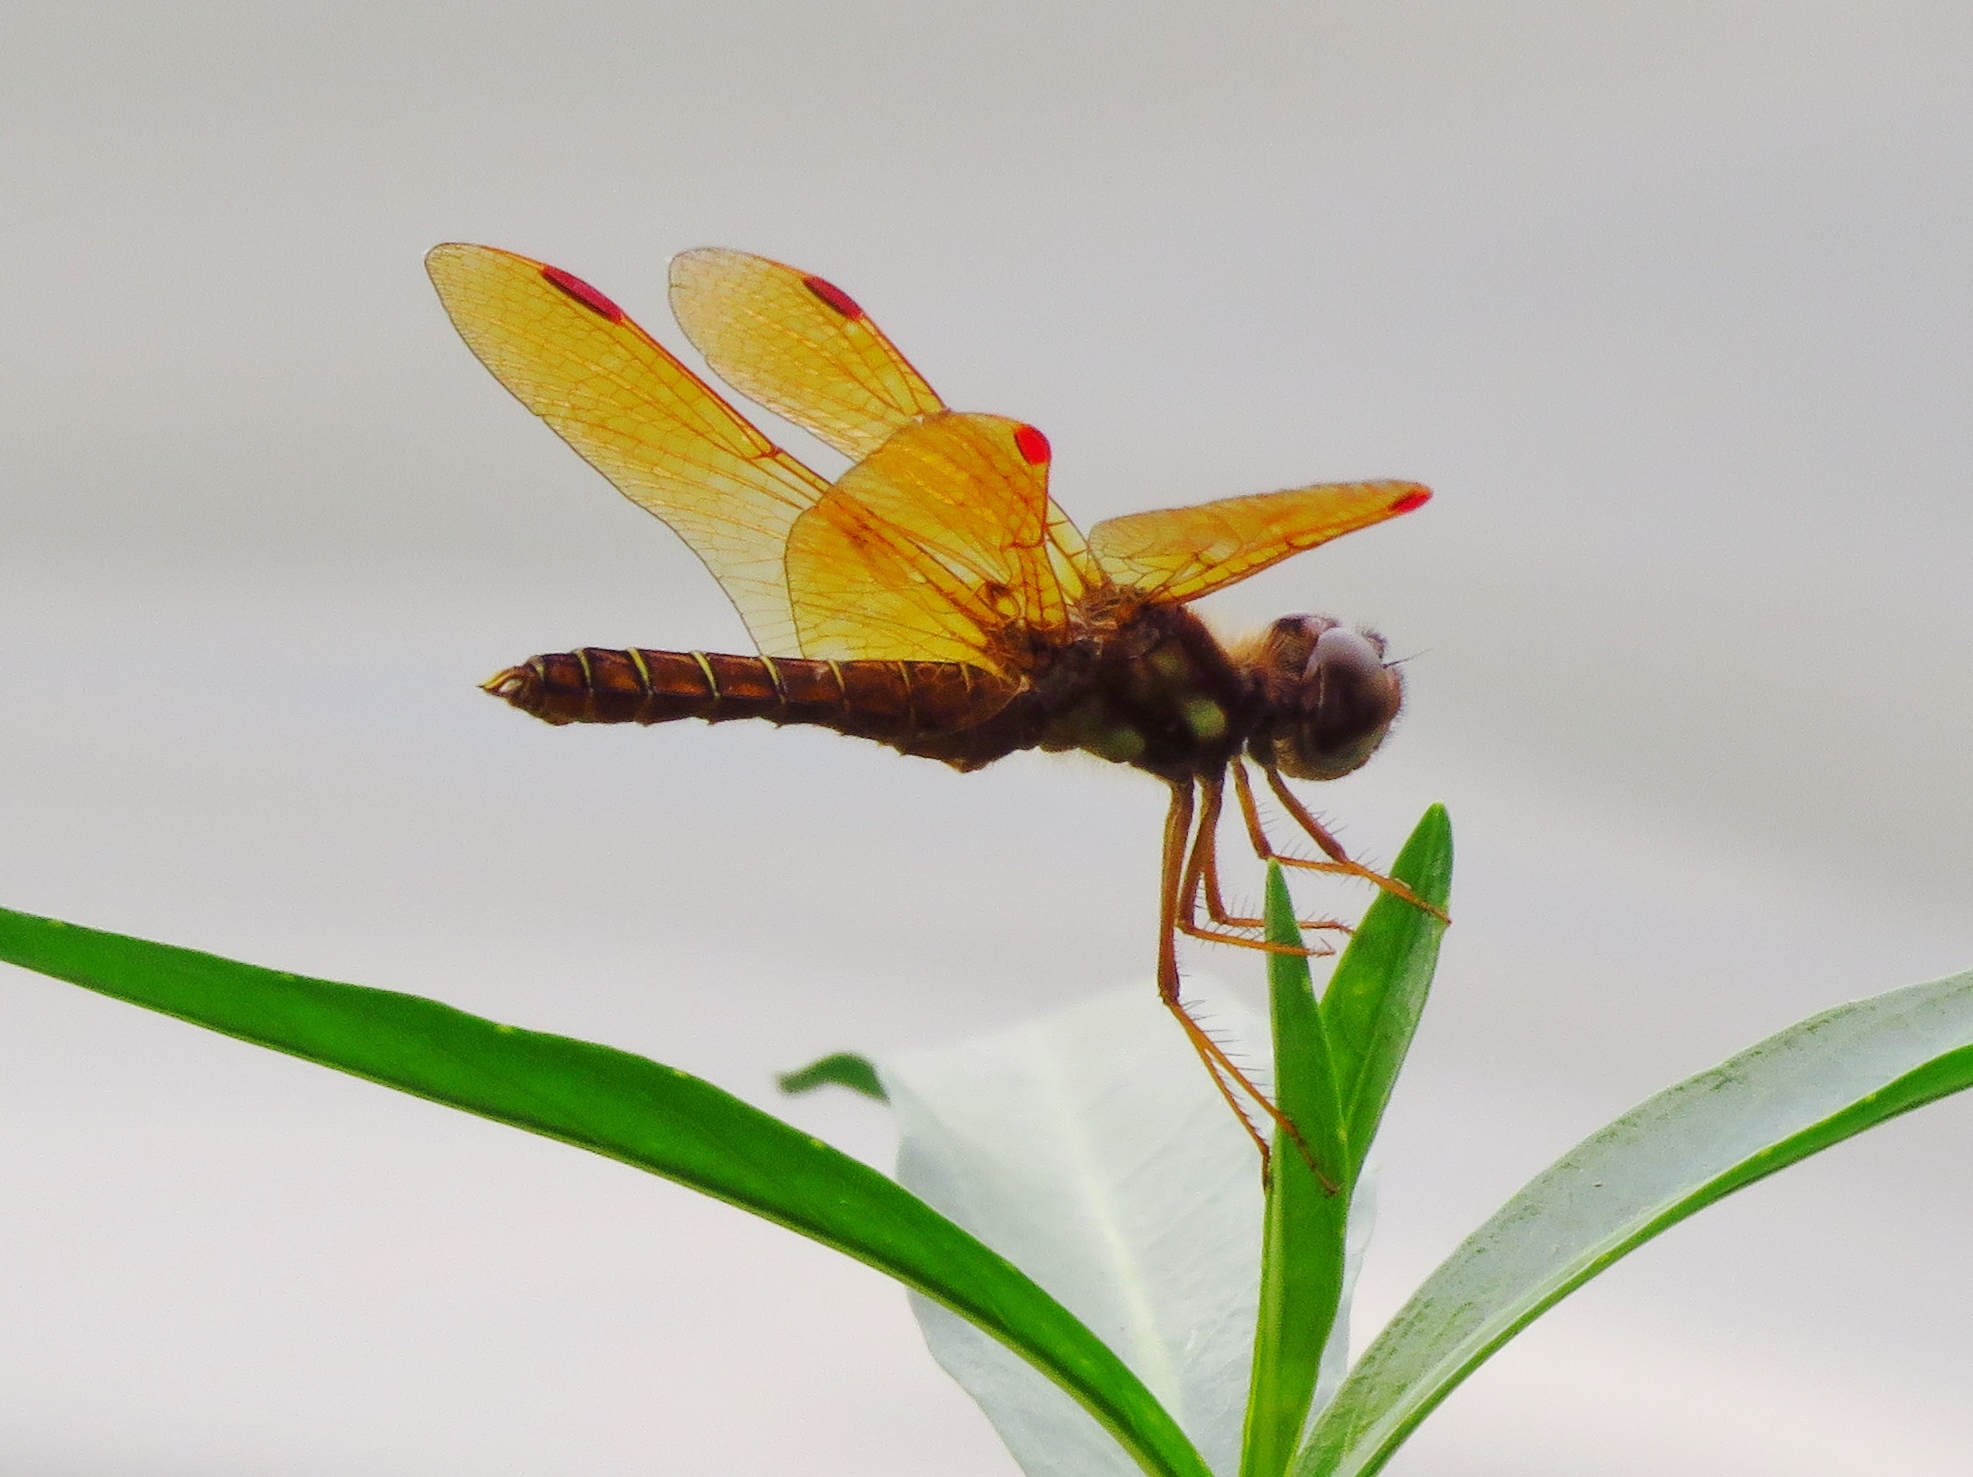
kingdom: Animalia
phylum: Arthropoda
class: Insecta
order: Odonata
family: Libellulidae
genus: Perithemis
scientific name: Perithemis tenera
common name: Eastern amberwing
